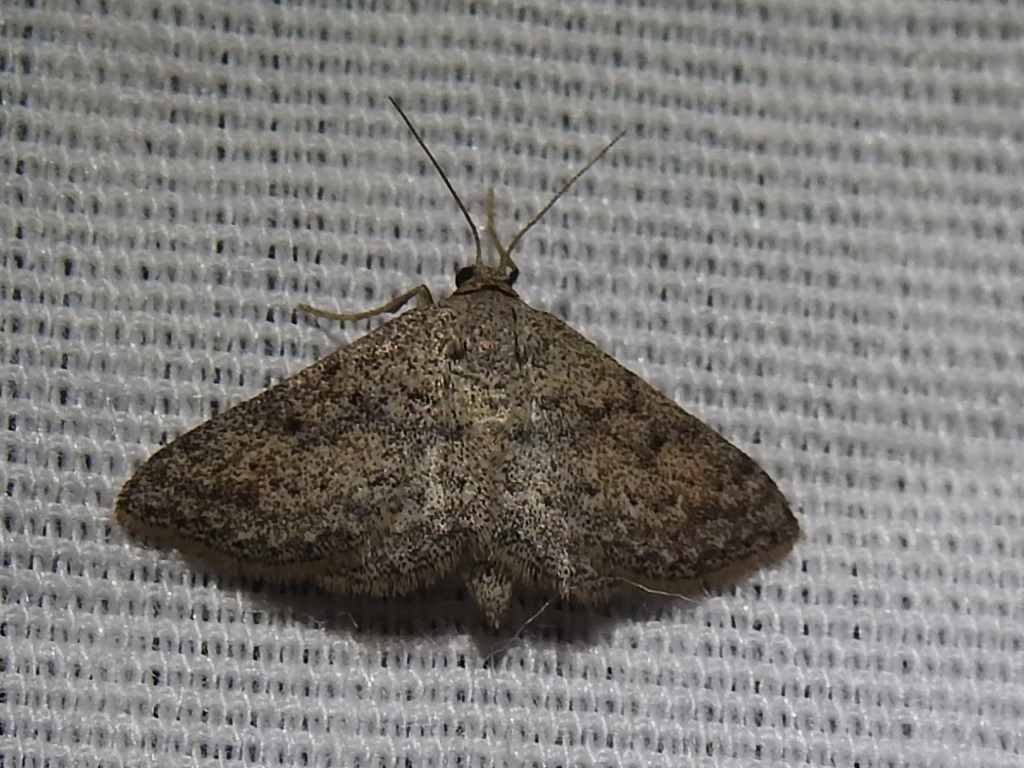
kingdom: Animalia
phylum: Arthropoda
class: Insecta
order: Lepidoptera
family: Geometridae
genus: Lobocleta
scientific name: Lobocleta ossularia
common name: Drab brown wave
